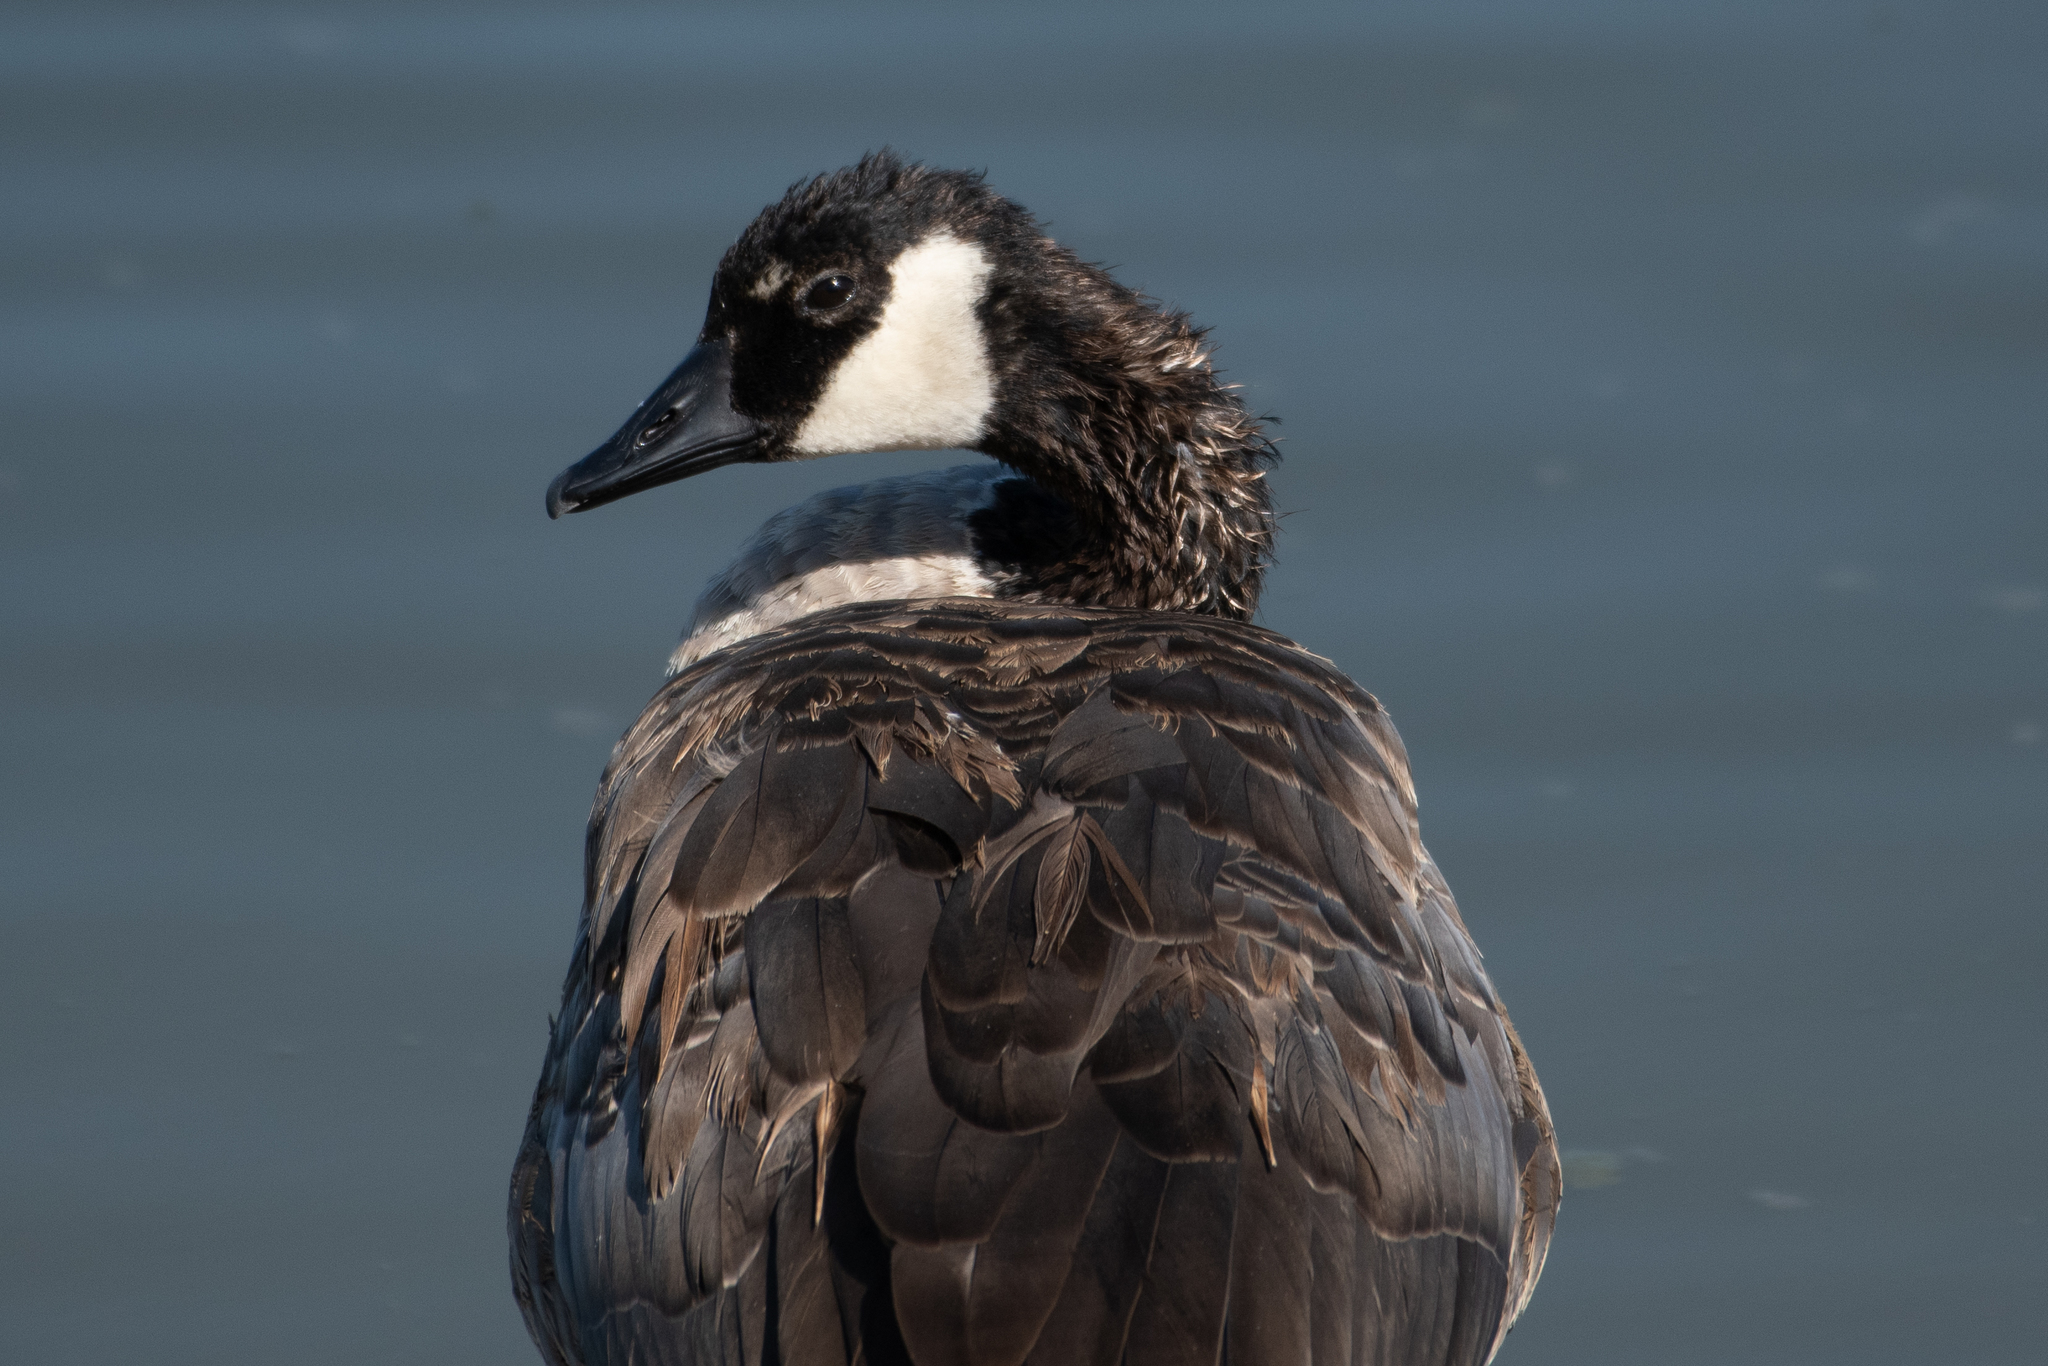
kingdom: Animalia
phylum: Chordata
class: Aves
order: Anseriformes
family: Anatidae
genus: Branta
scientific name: Branta canadensis
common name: Canada goose
